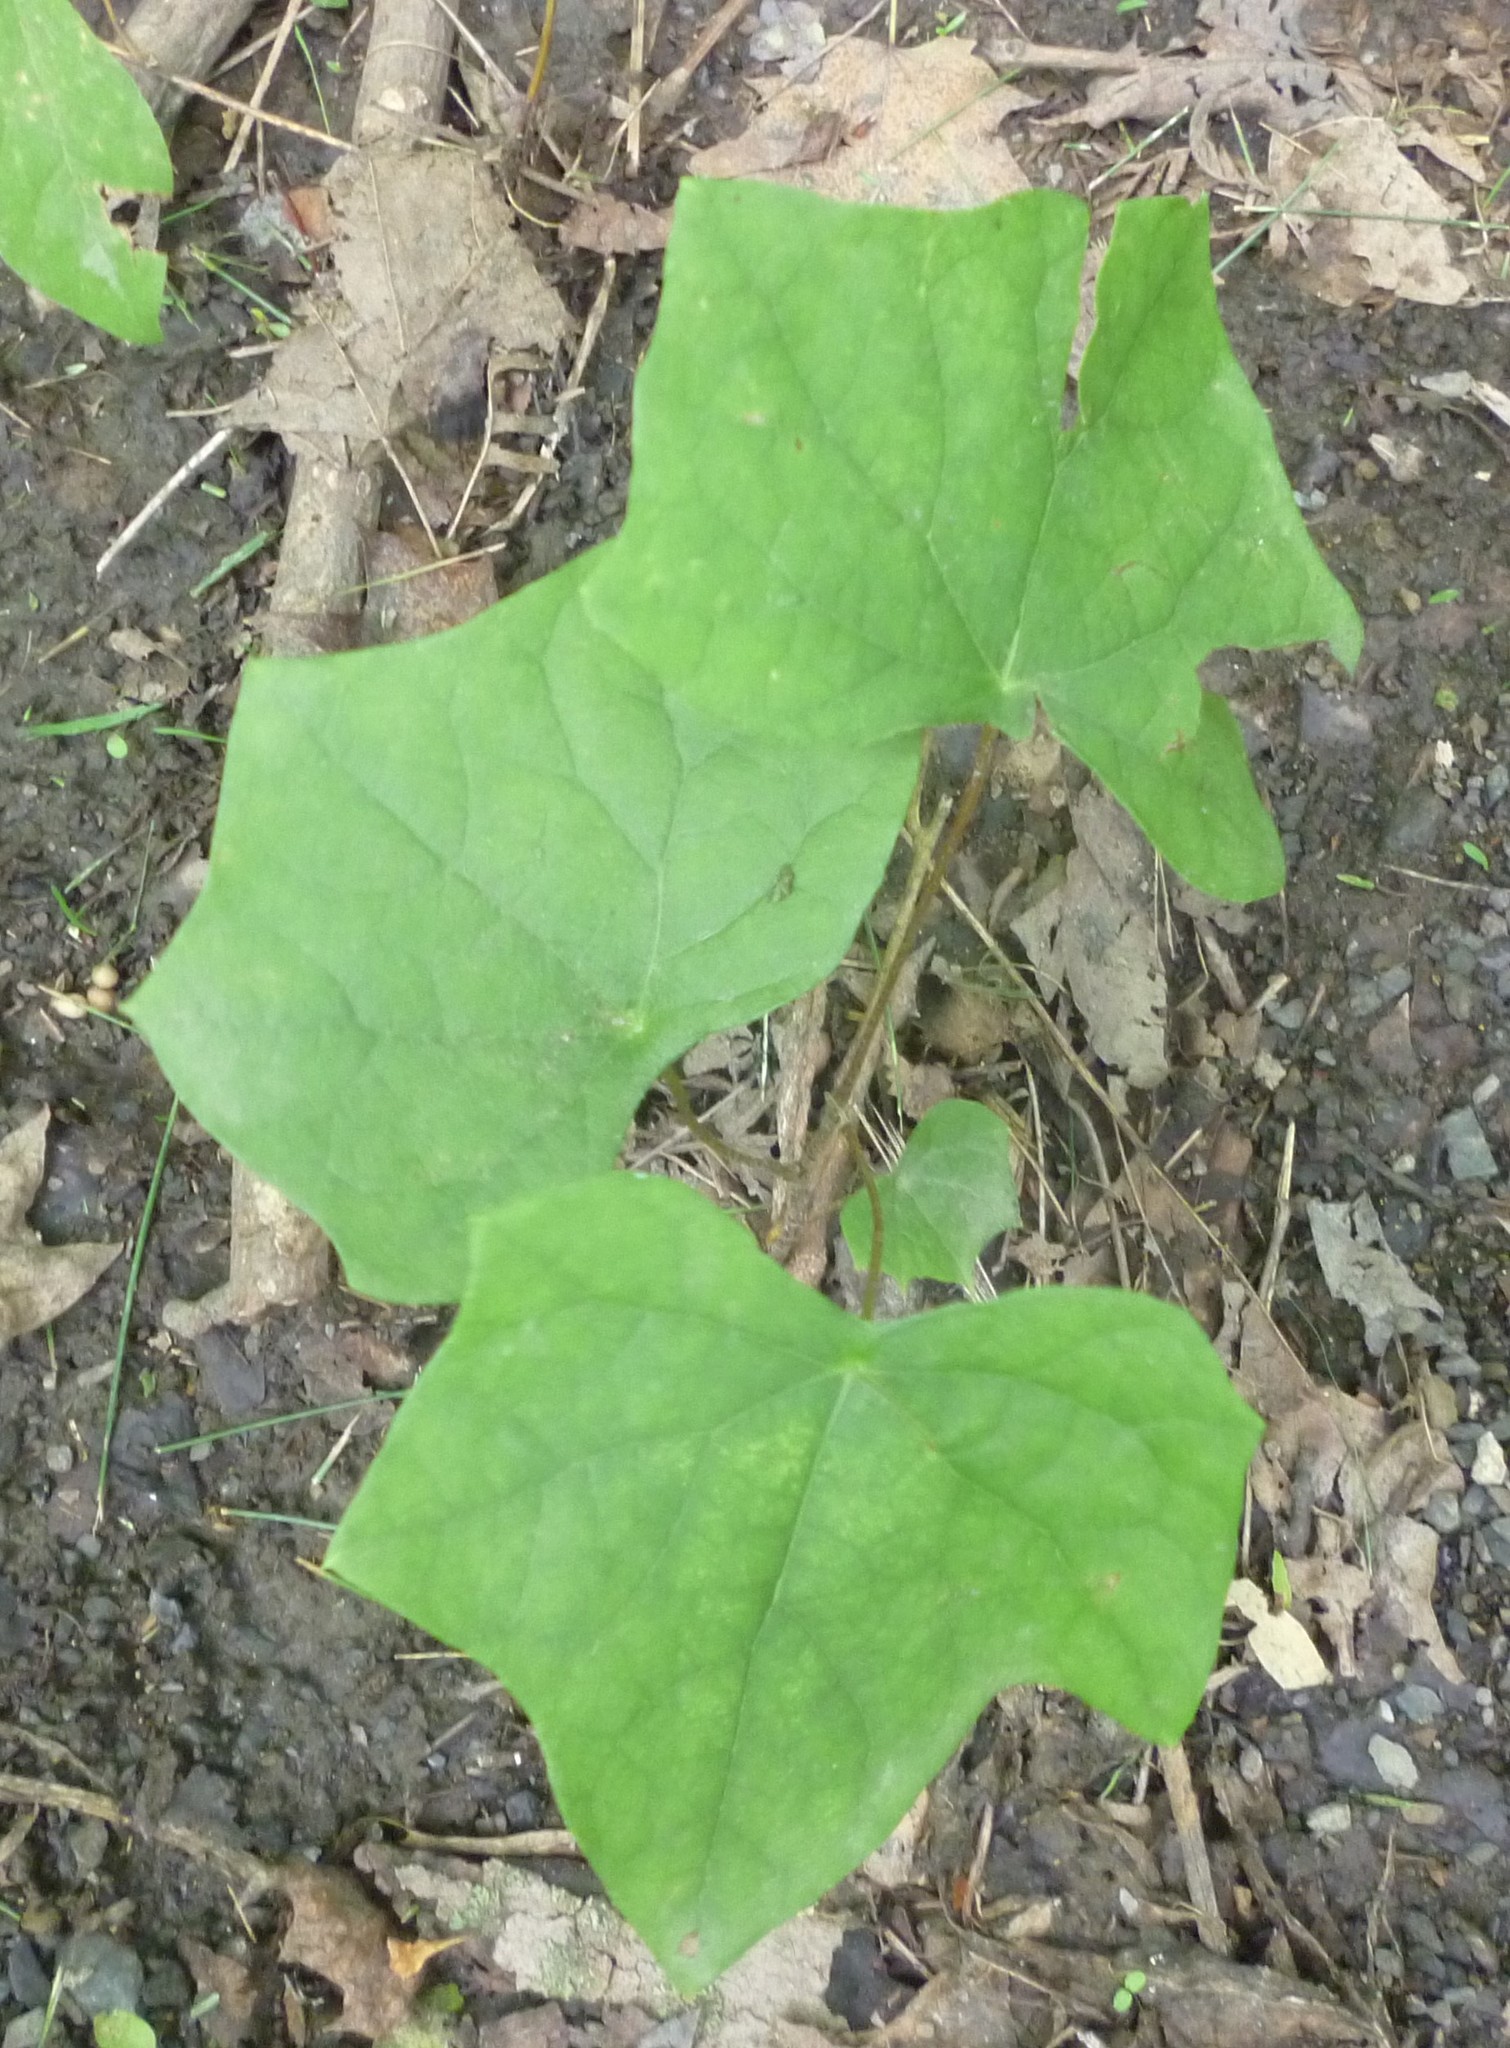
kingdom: Plantae
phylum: Tracheophyta
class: Magnoliopsida
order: Ranunculales
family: Menispermaceae
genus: Menispermum
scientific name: Menispermum canadense
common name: Moonseed
